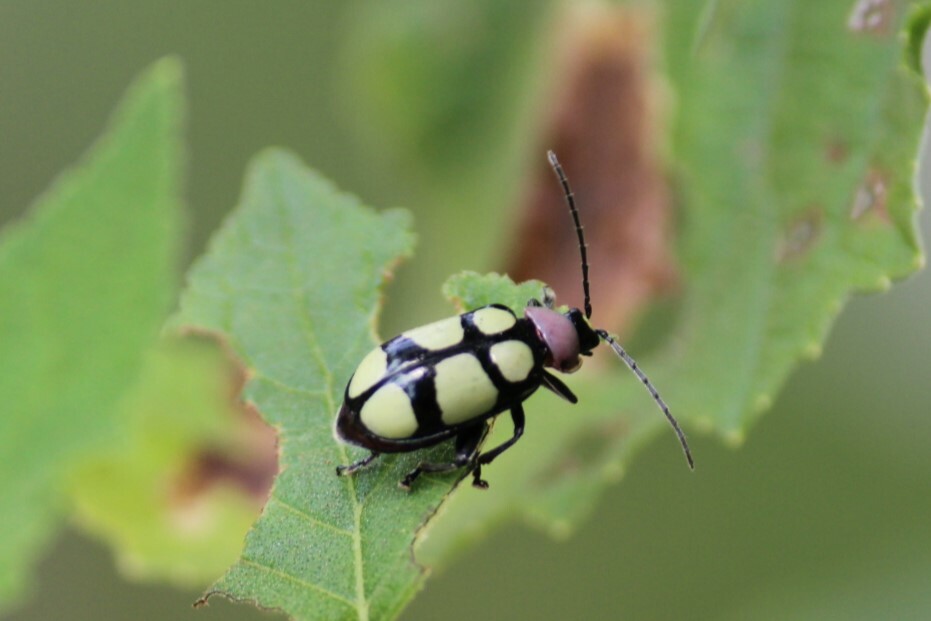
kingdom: Animalia
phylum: Arthropoda
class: Insecta
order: Coleoptera
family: Chrysomelidae
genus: Omophoita
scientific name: Omophoita
